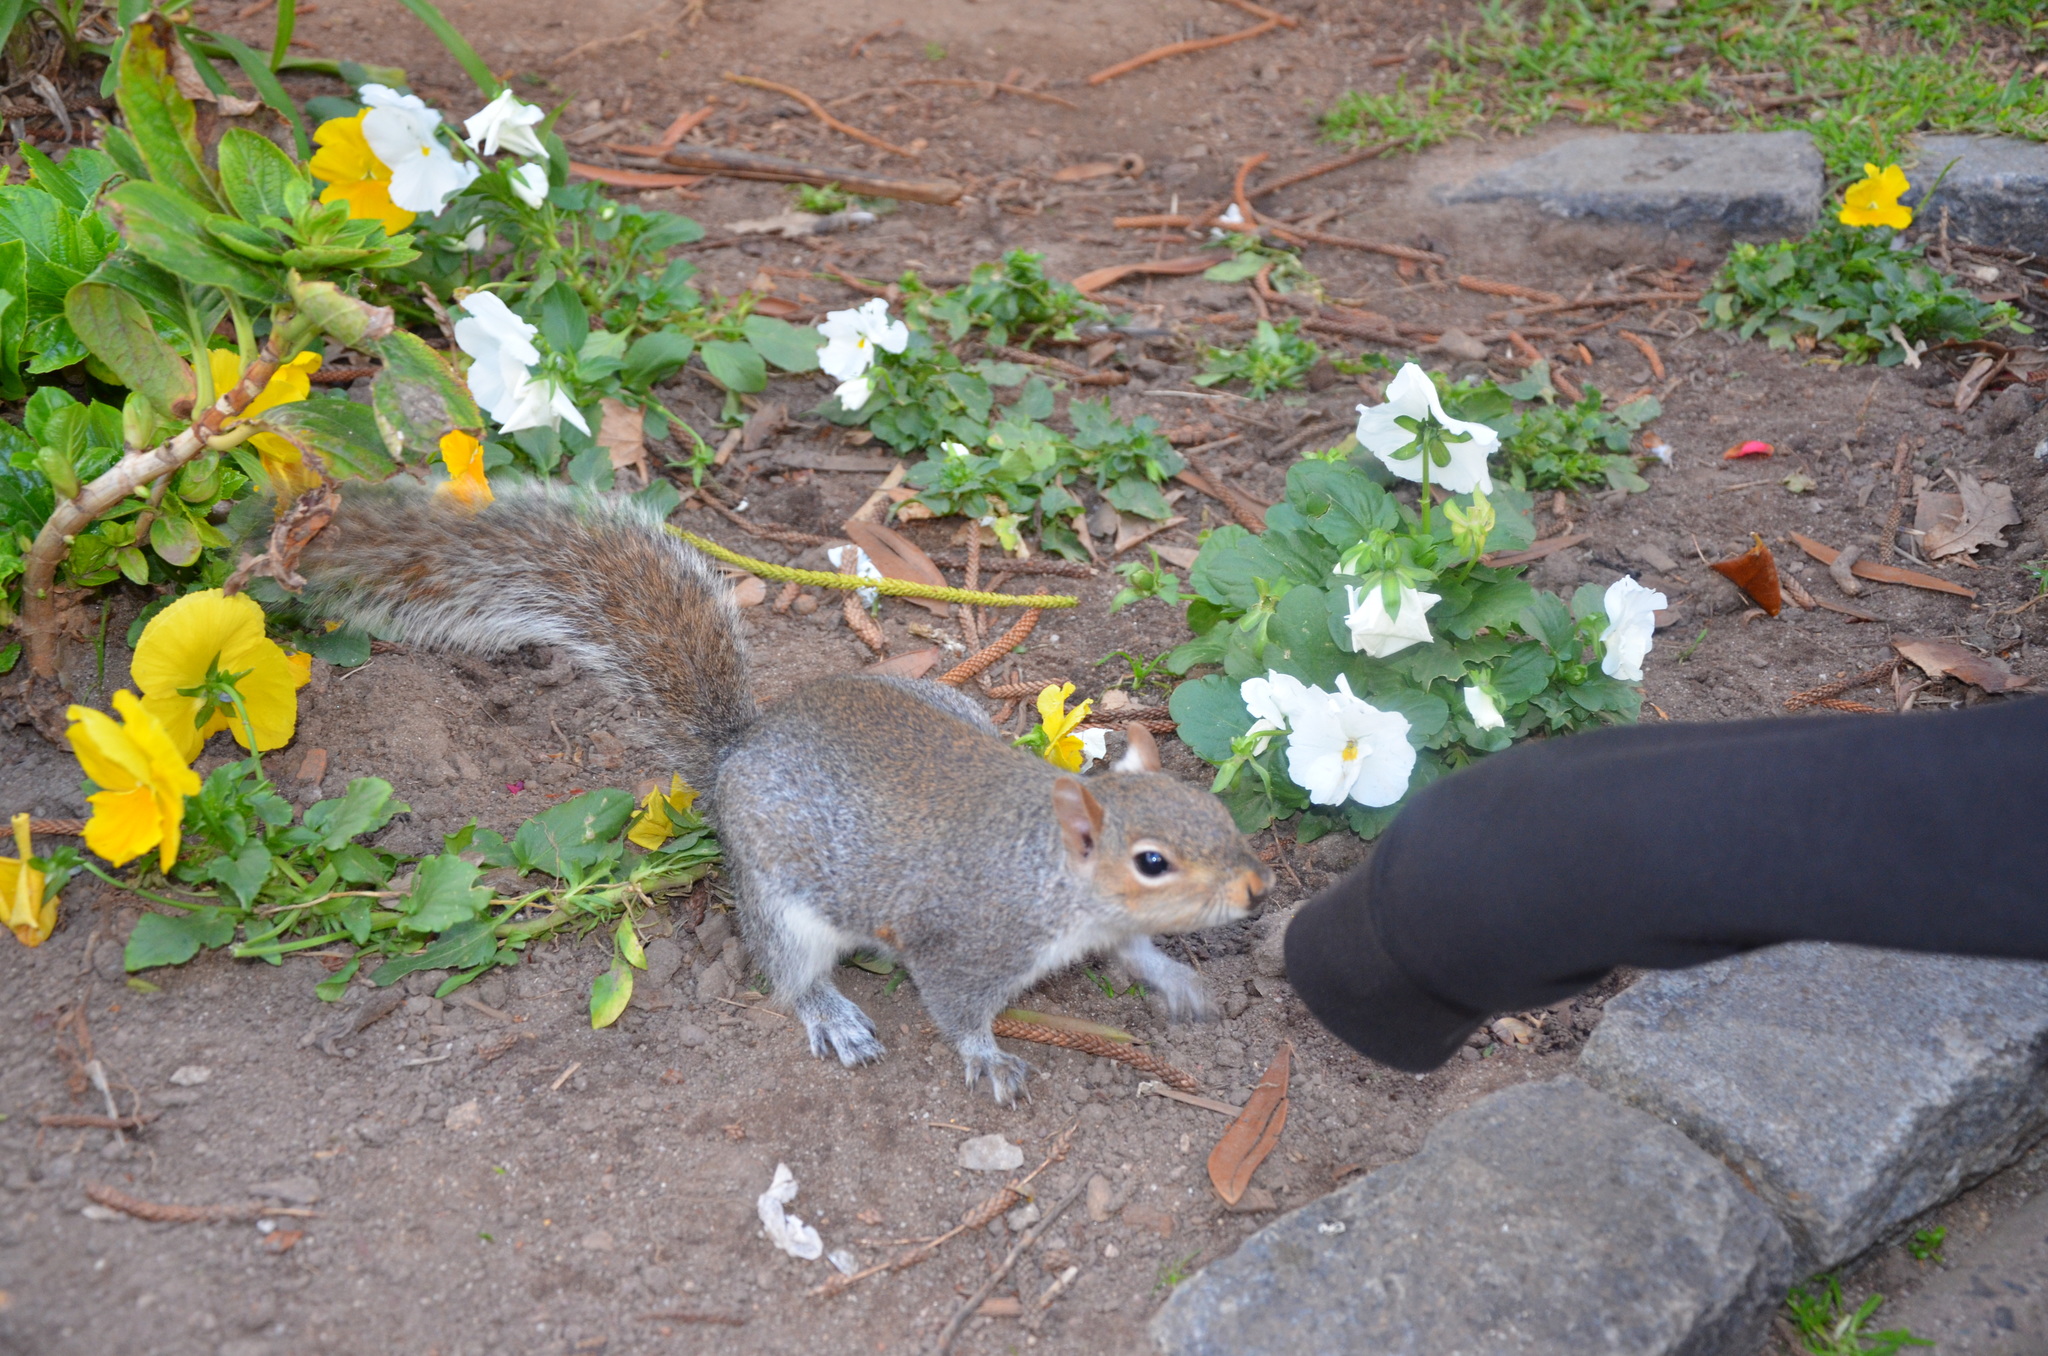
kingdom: Animalia
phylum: Chordata
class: Mammalia
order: Rodentia
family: Sciuridae
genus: Sciurus
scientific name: Sciurus carolinensis
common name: Eastern gray squirrel
